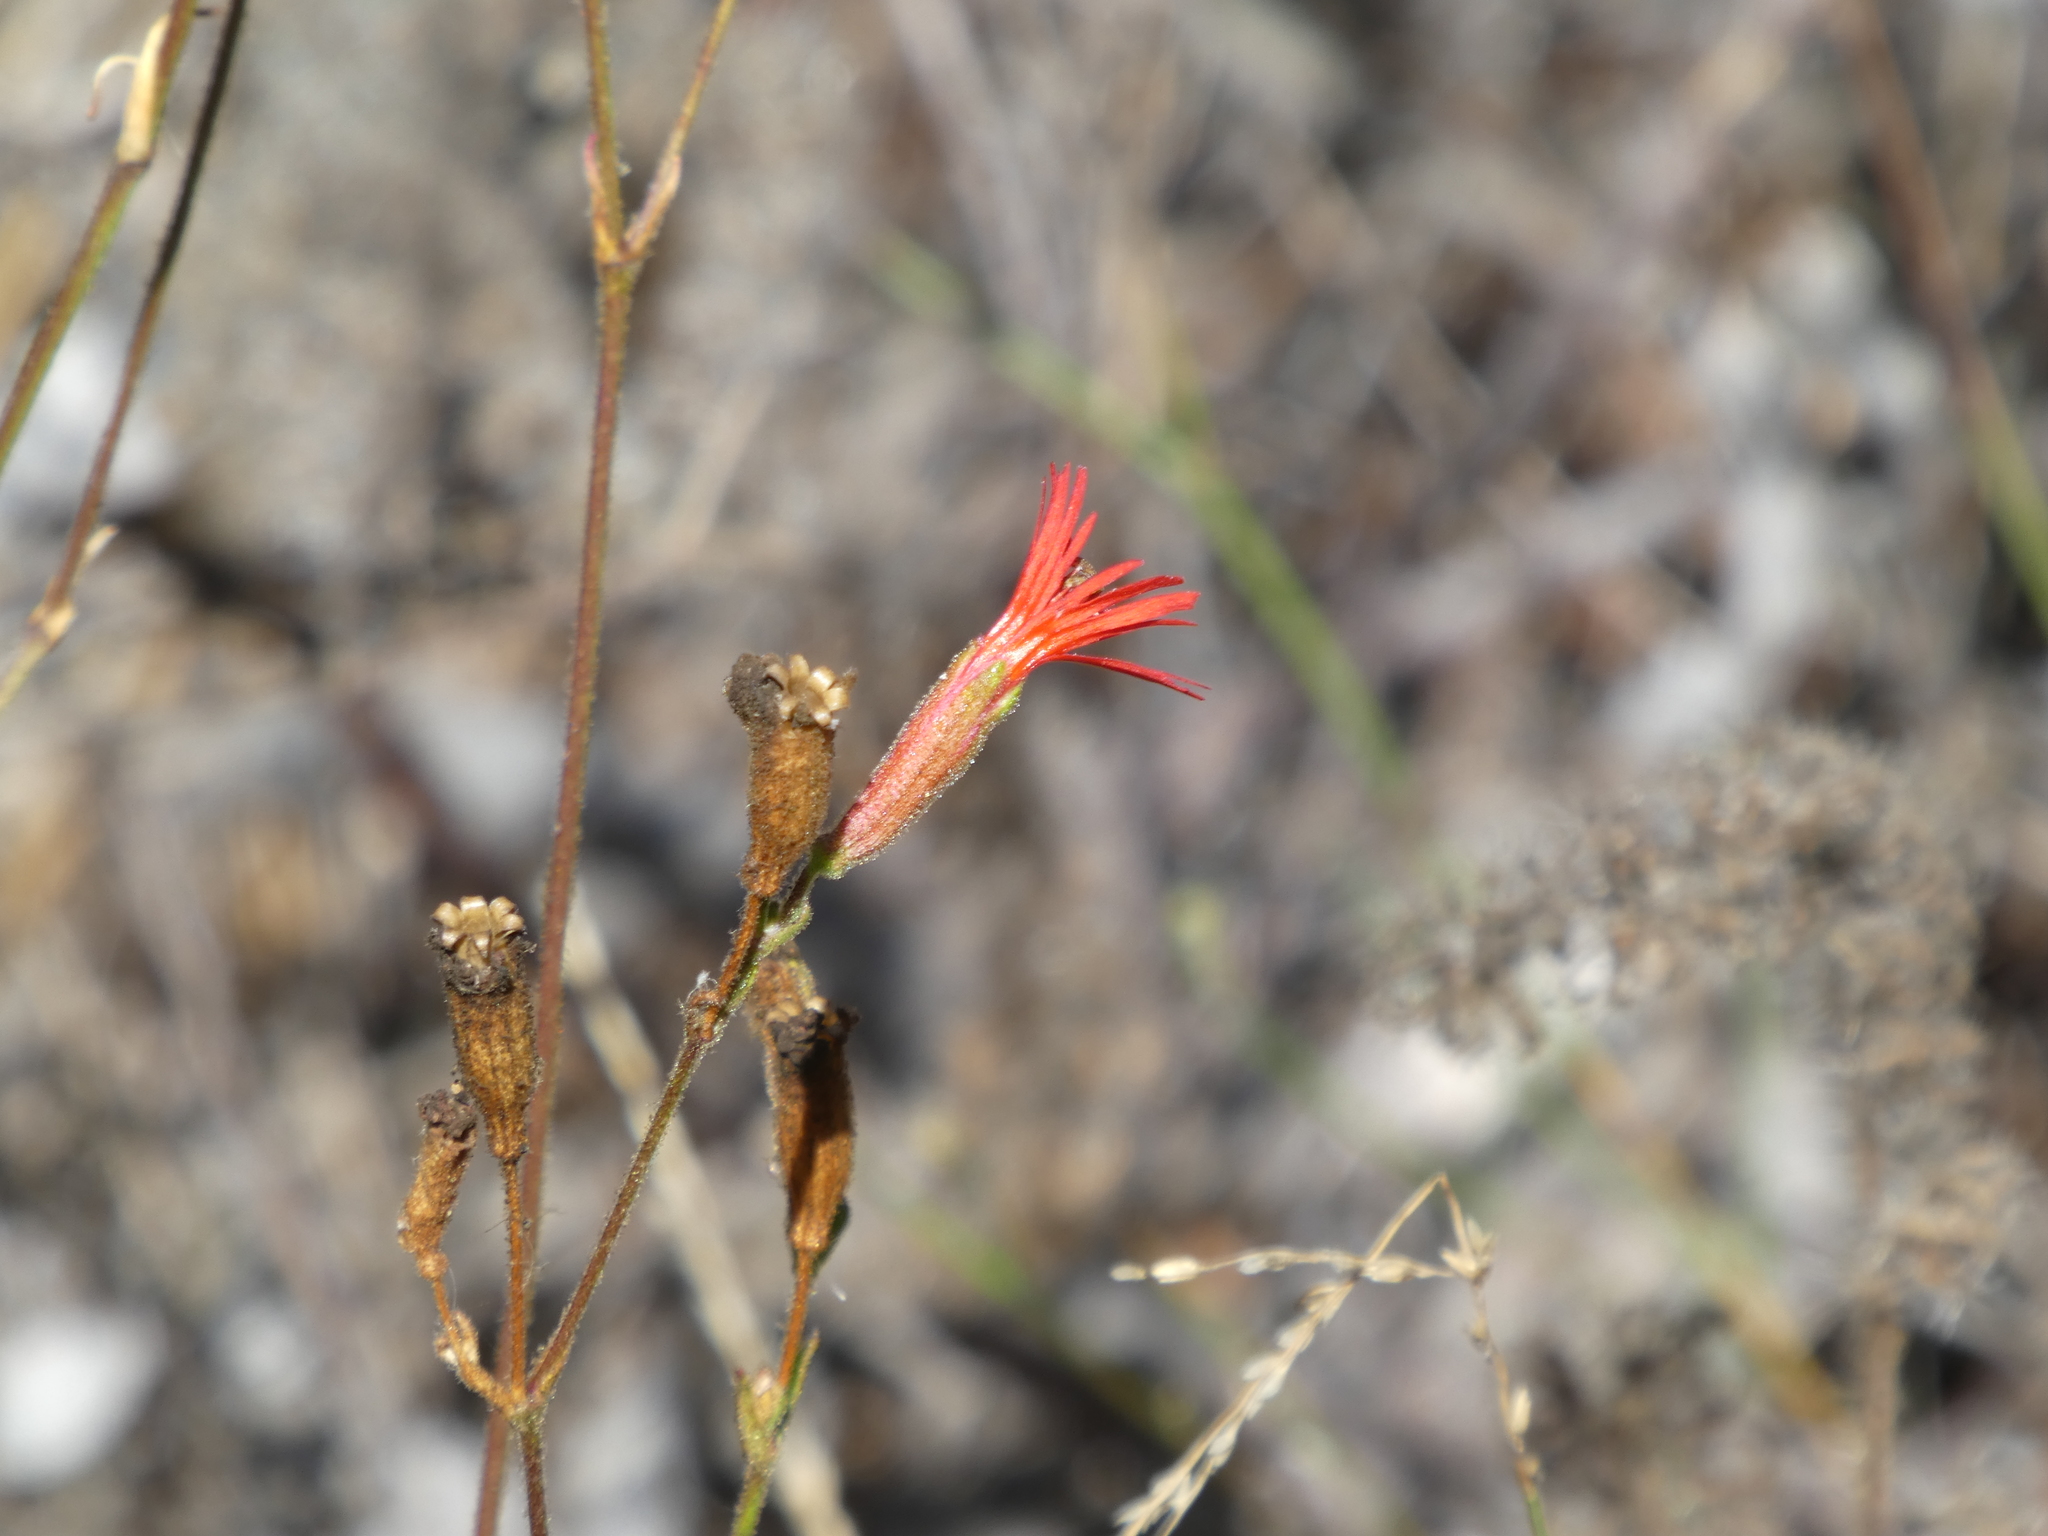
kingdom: Plantae
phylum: Tracheophyta
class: Magnoliopsida
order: Caryophyllales
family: Caryophyllaceae
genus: Silene
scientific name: Silene laciniata
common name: Indian-pink
